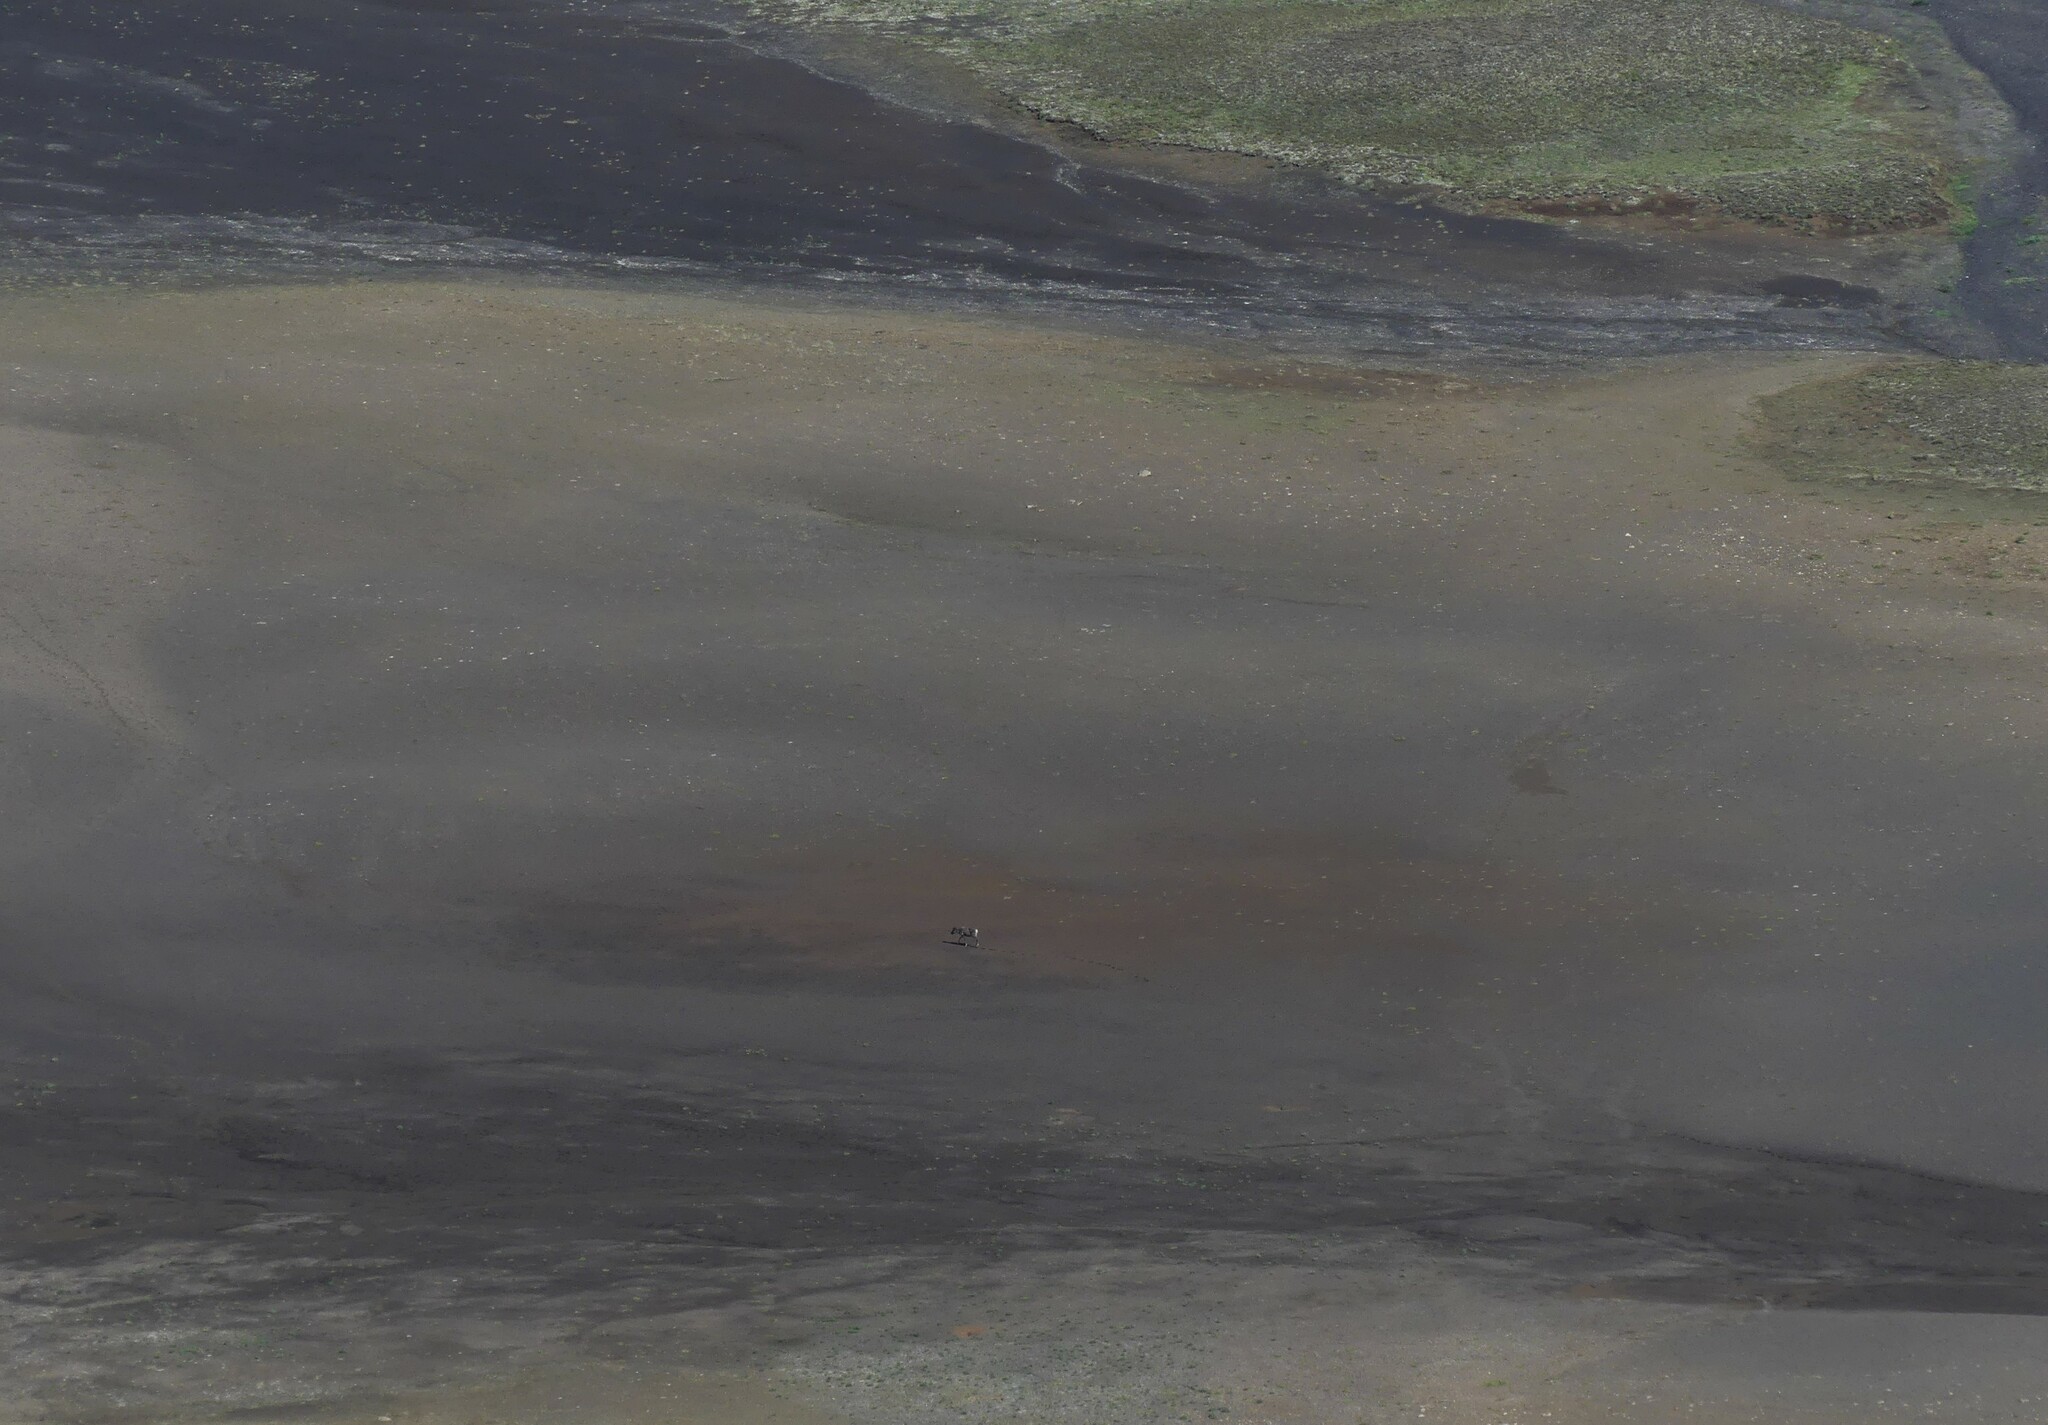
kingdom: Animalia
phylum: Chordata
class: Mammalia
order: Artiodactyla
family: Cervidae
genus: Rangifer
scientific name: Rangifer tarandus
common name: Reindeer
